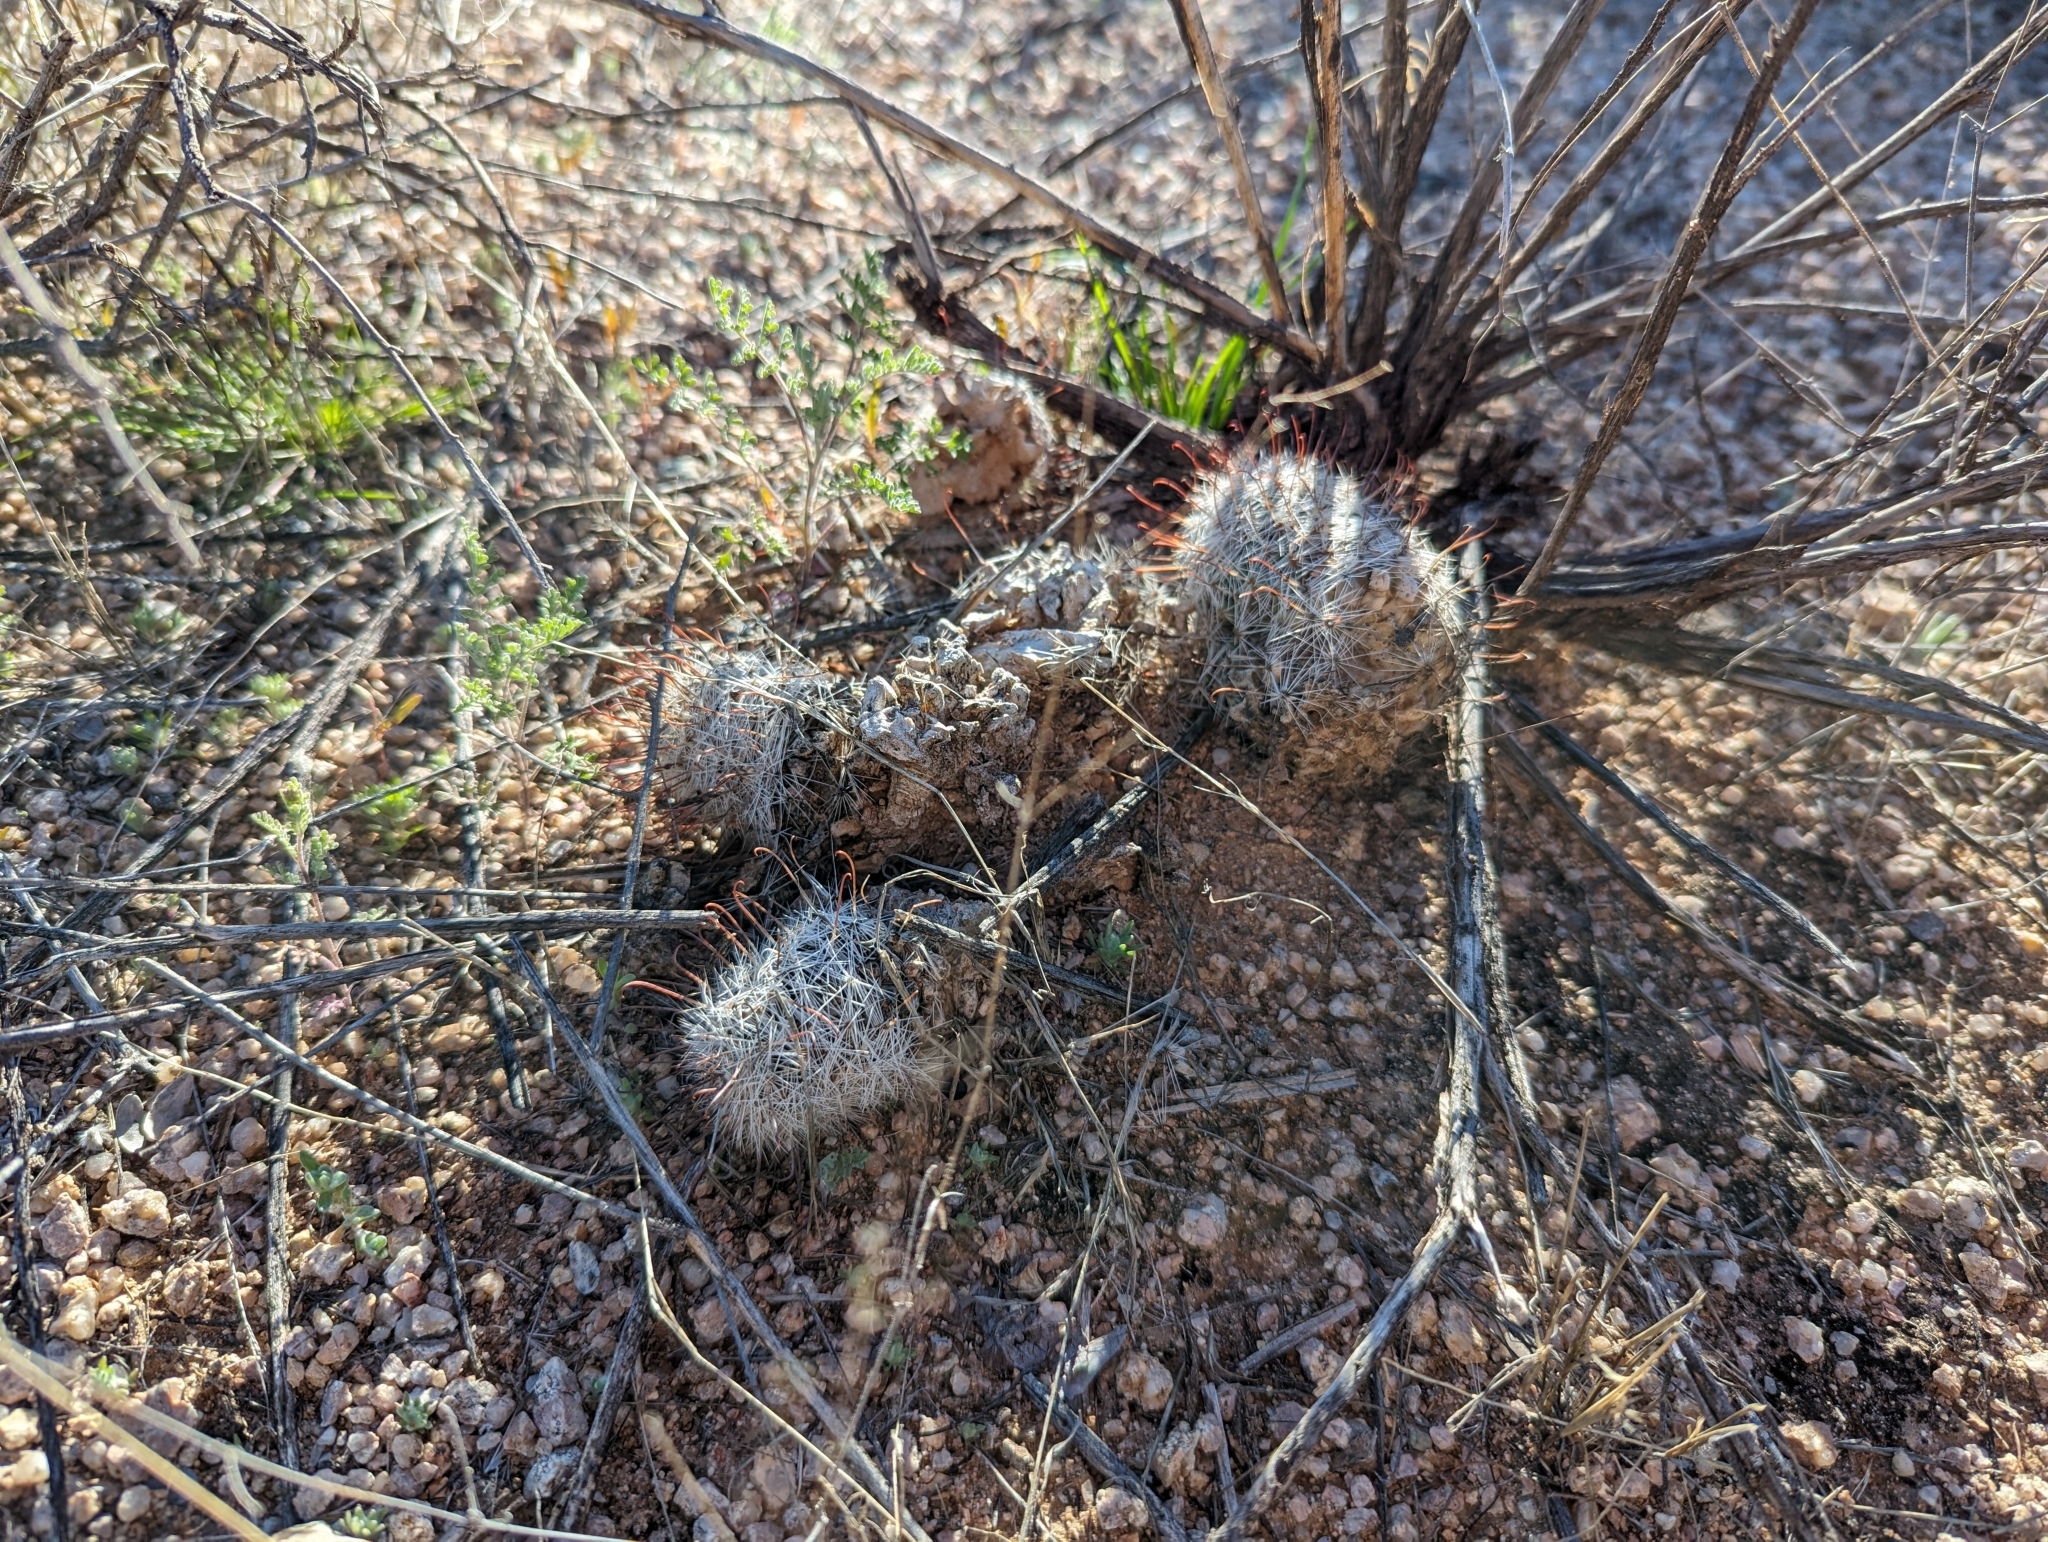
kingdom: Plantae
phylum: Tracheophyta
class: Magnoliopsida
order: Caryophyllales
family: Cactaceae
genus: Cochemiea
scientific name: Cochemiea grahamii
